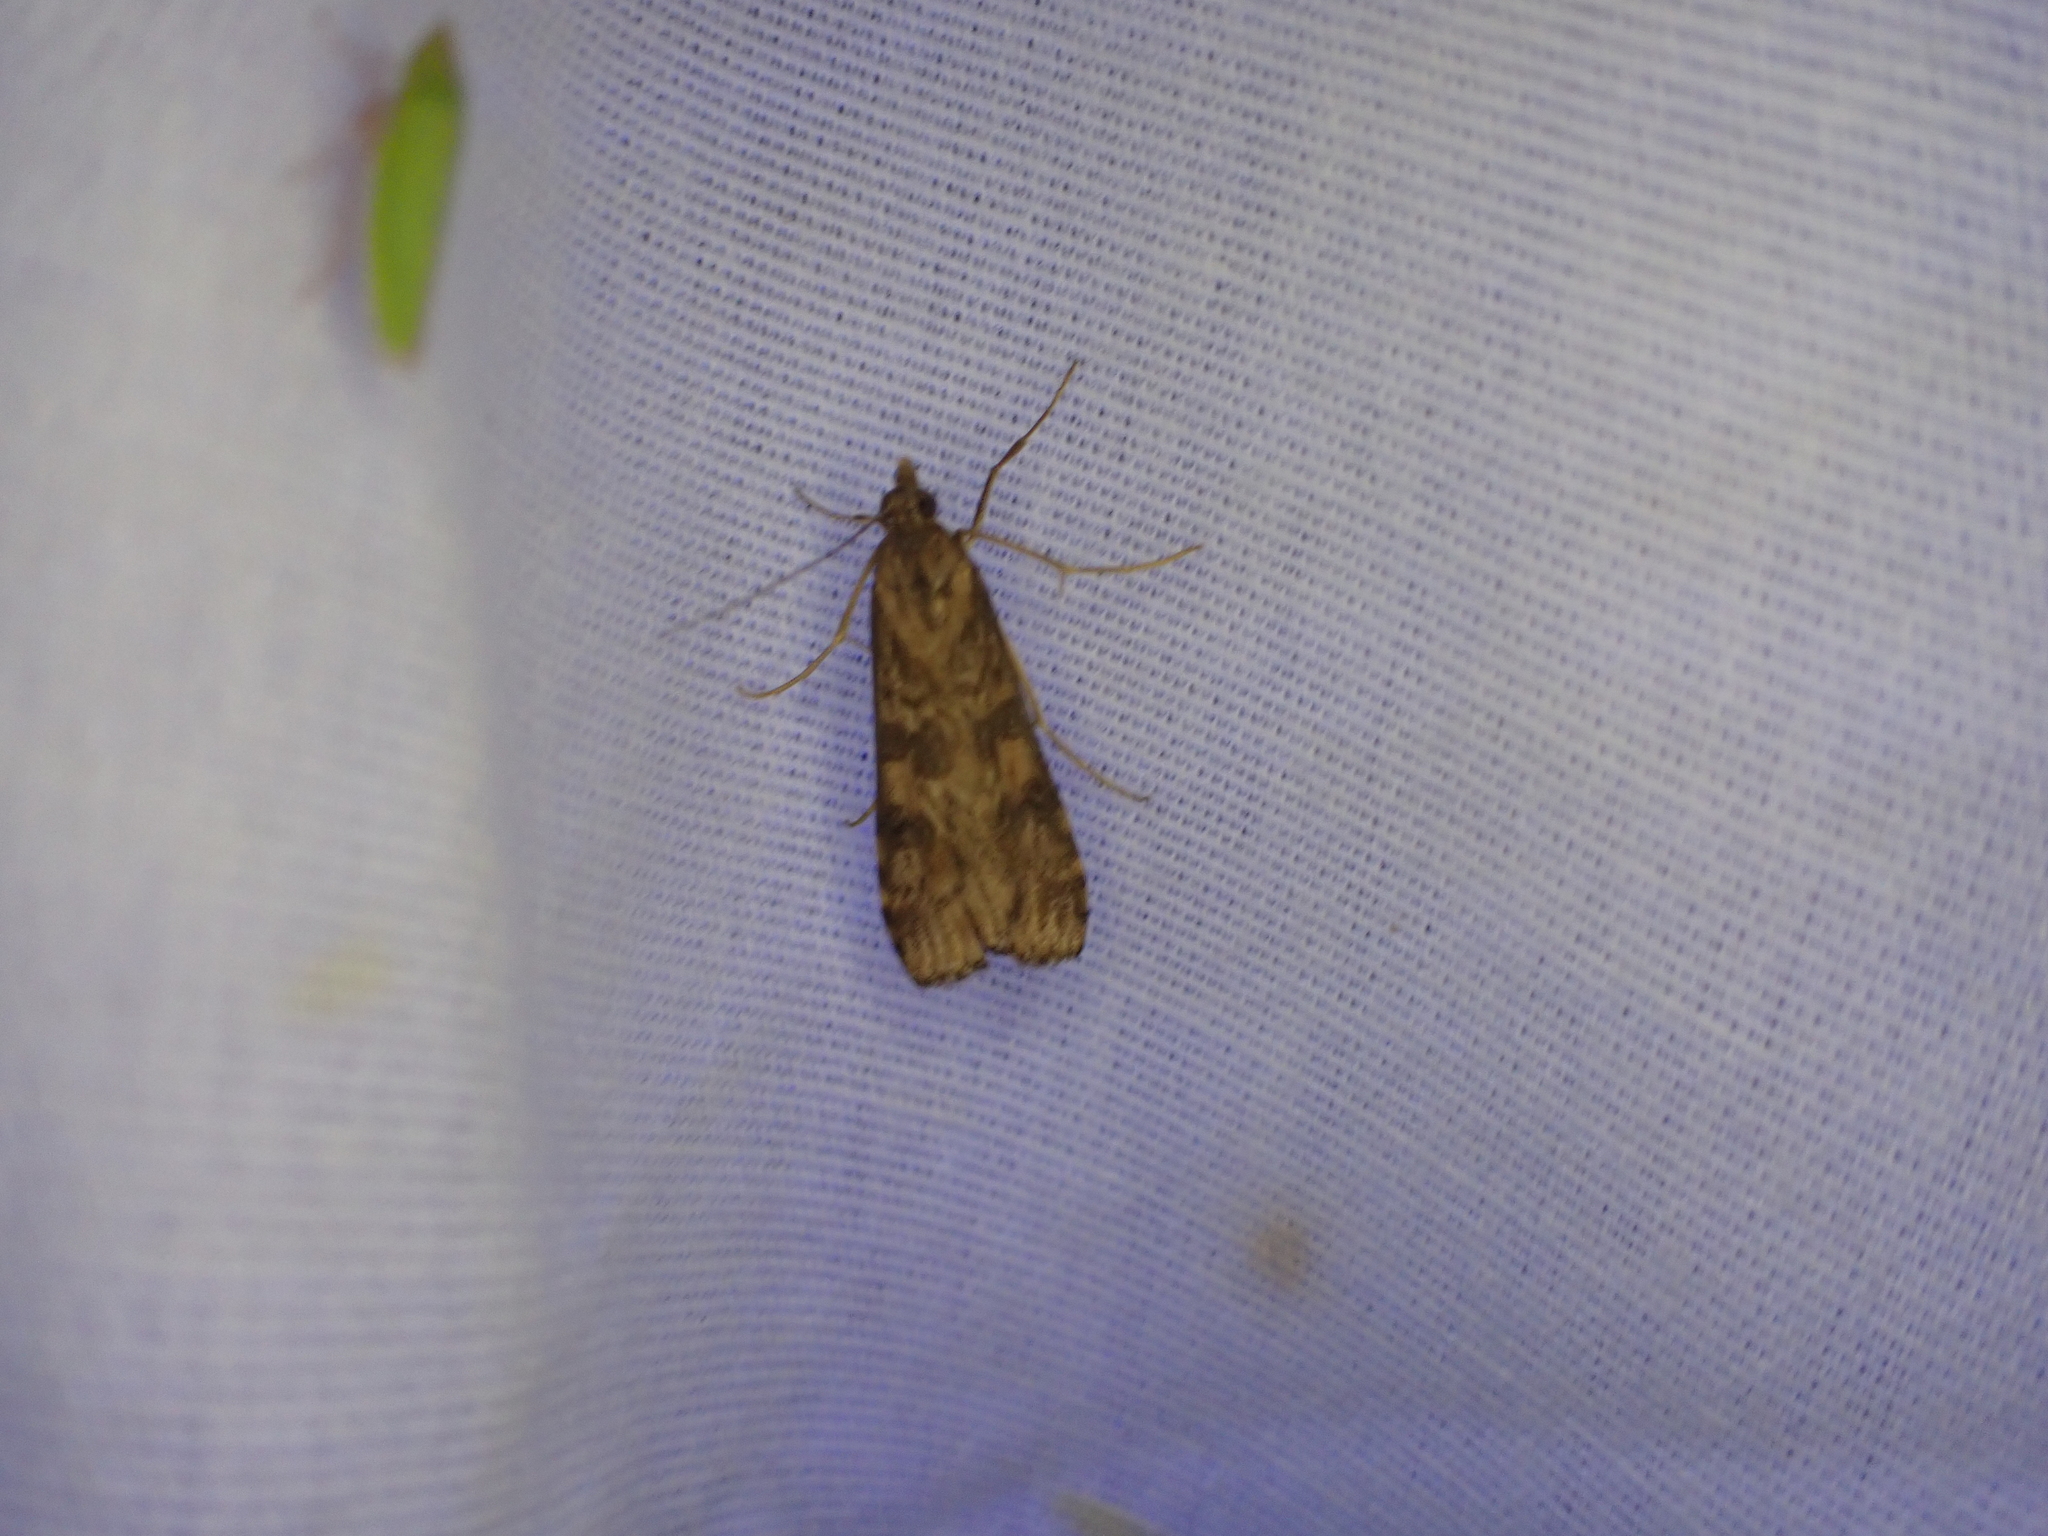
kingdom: Animalia
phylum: Arthropoda
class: Insecta
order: Lepidoptera
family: Crambidae
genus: Nomophila
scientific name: Nomophila nearctica
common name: American rush veneer
